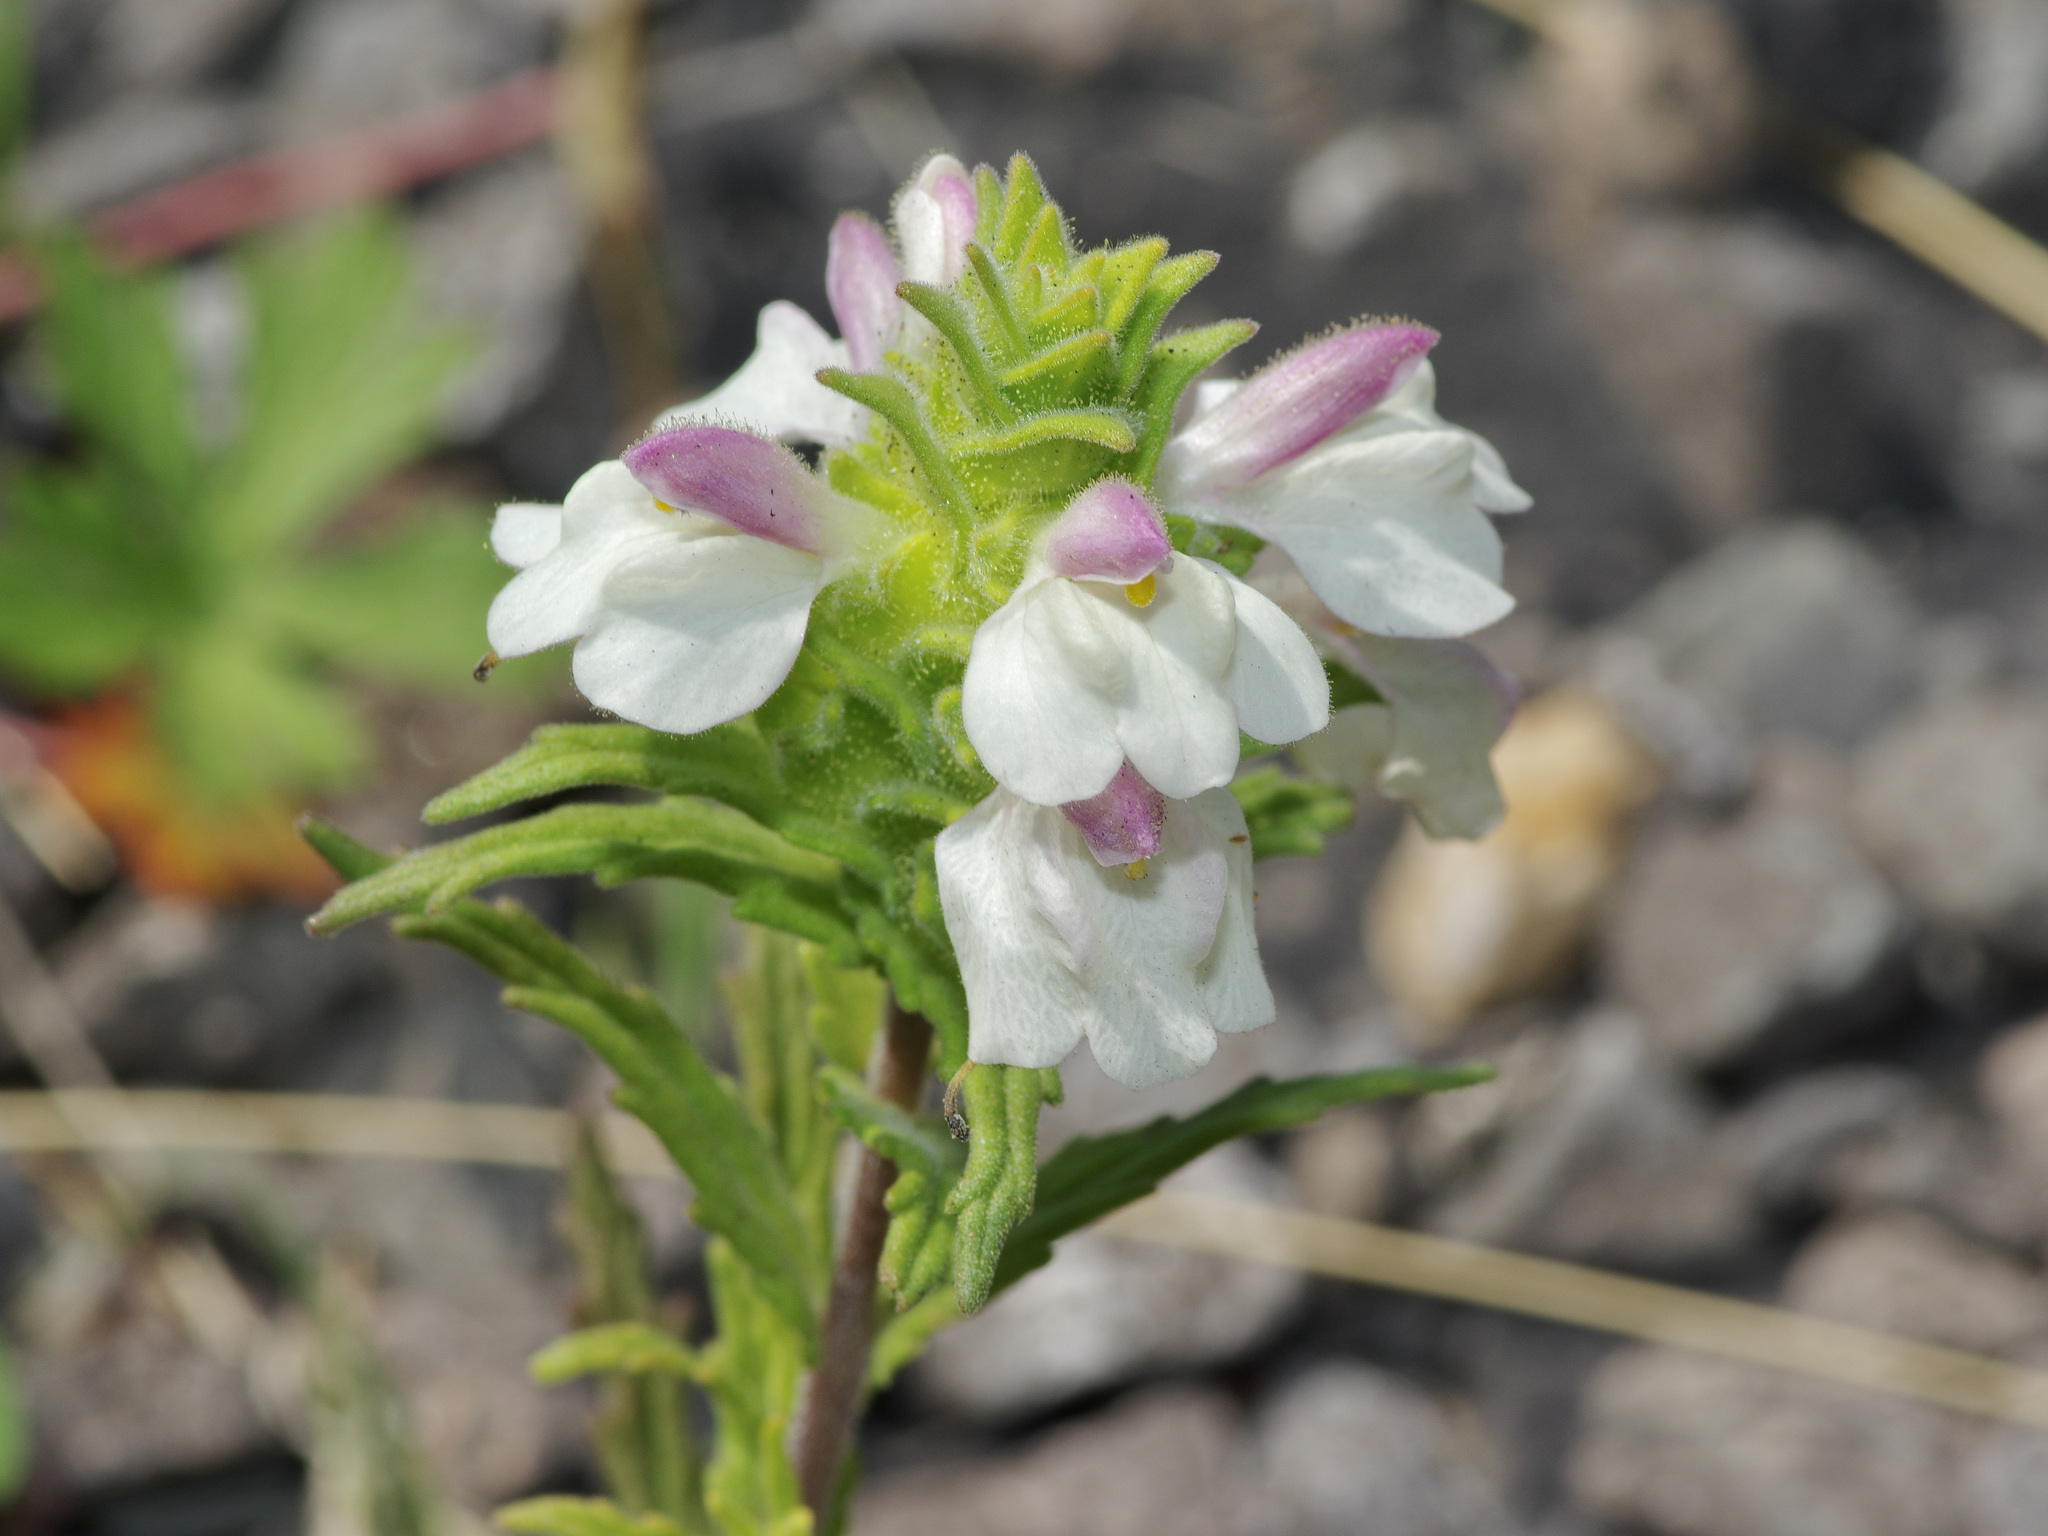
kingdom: Plantae
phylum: Tracheophyta
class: Magnoliopsida
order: Lamiales
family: Orobanchaceae
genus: Bellardia
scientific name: Bellardia trixago
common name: Mediterranean lineseed
